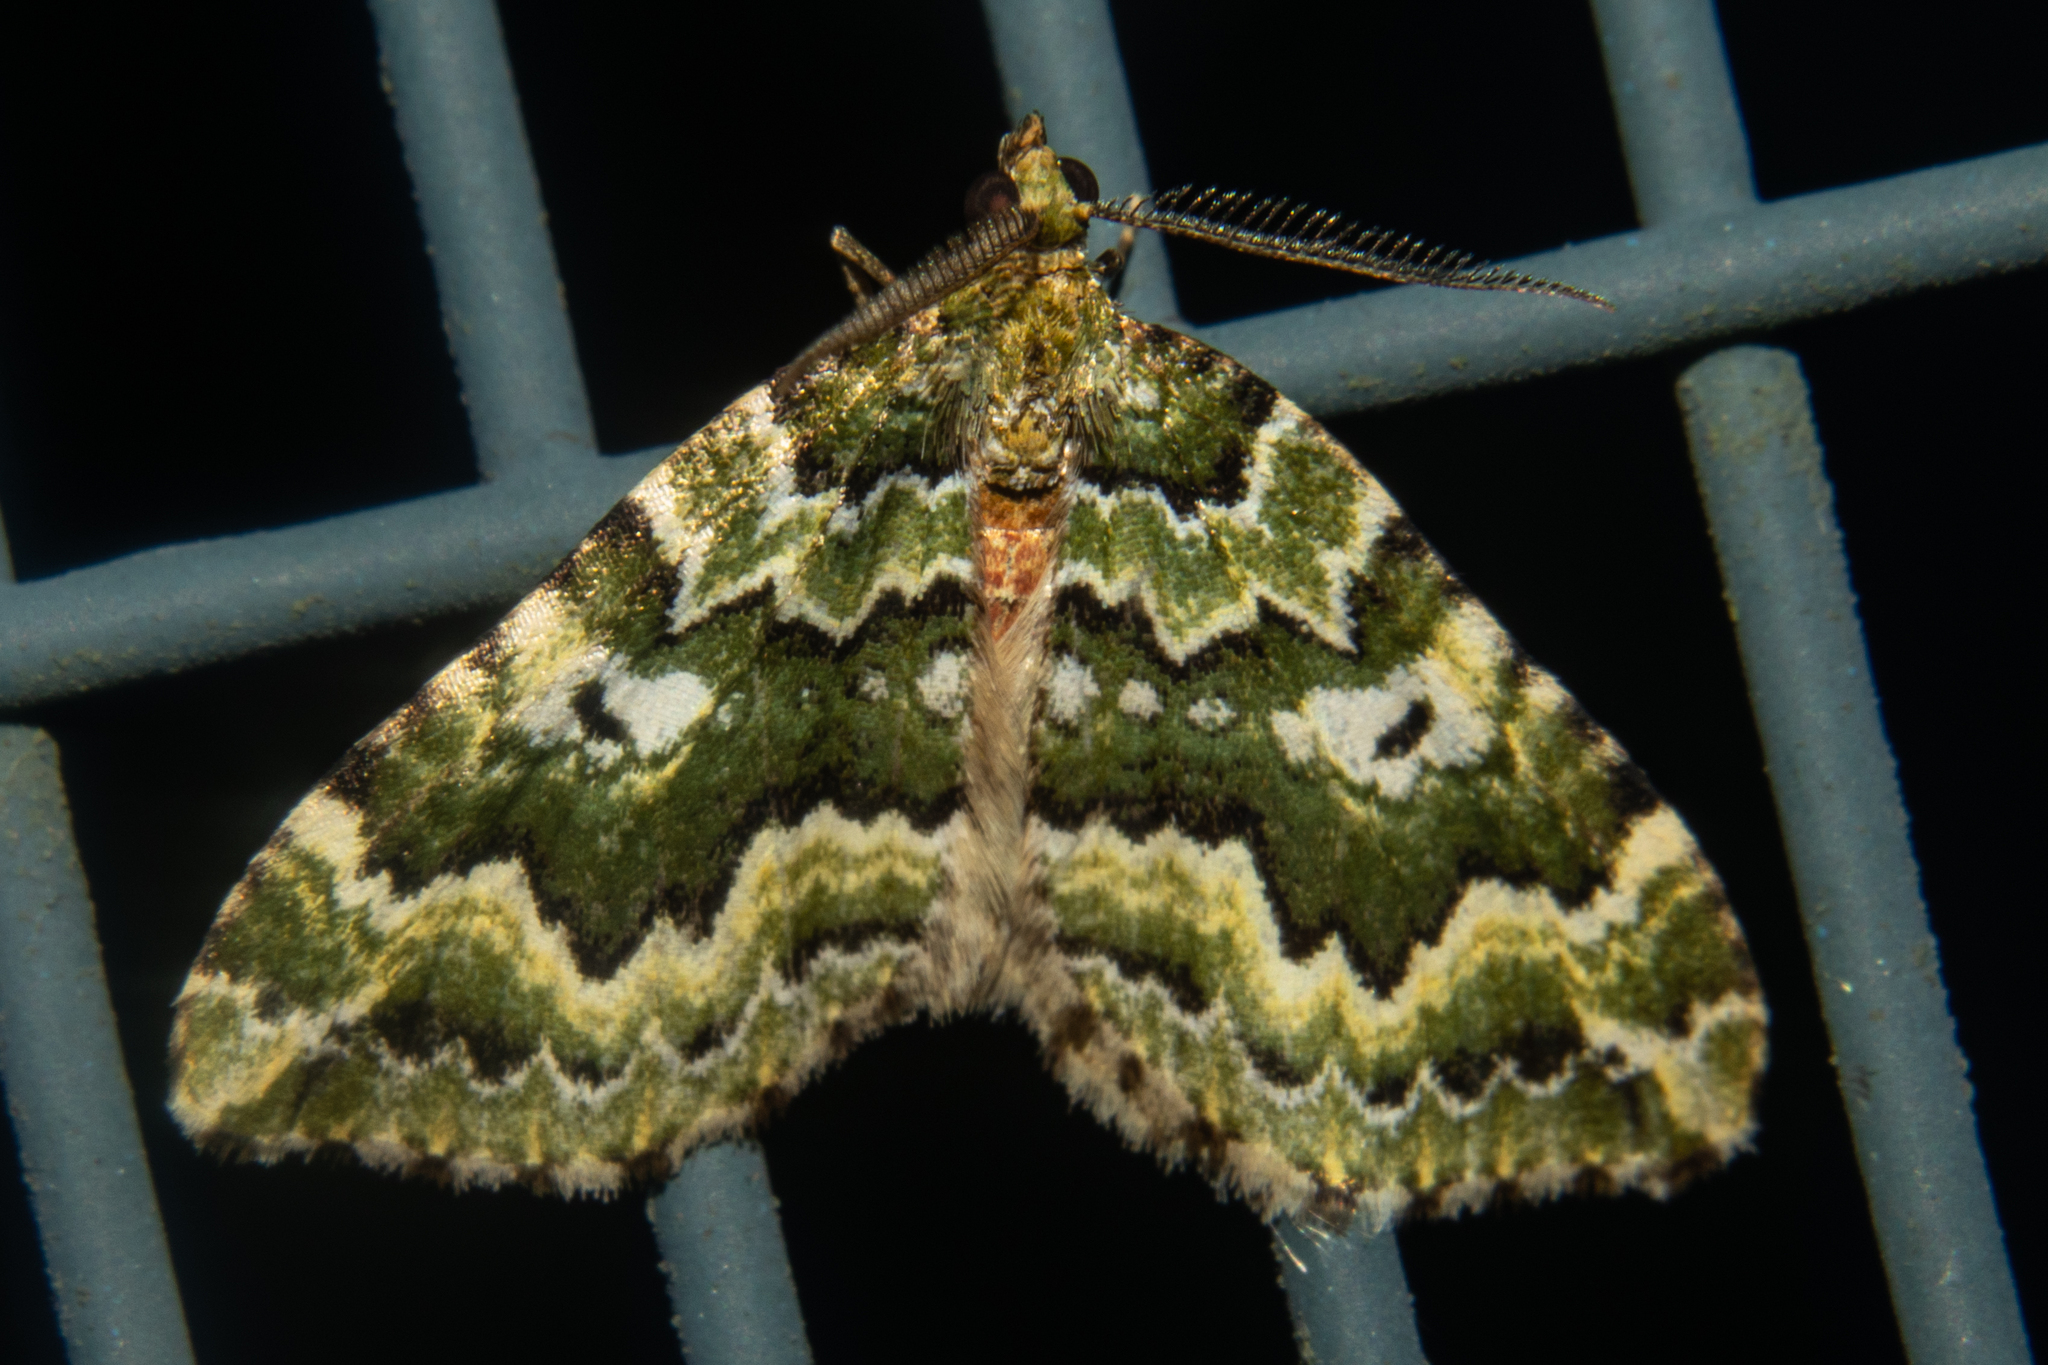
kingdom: Animalia
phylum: Arthropoda
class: Insecta
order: Lepidoptera
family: Geometridae
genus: Asaphodes
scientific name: Asaphodes beata
